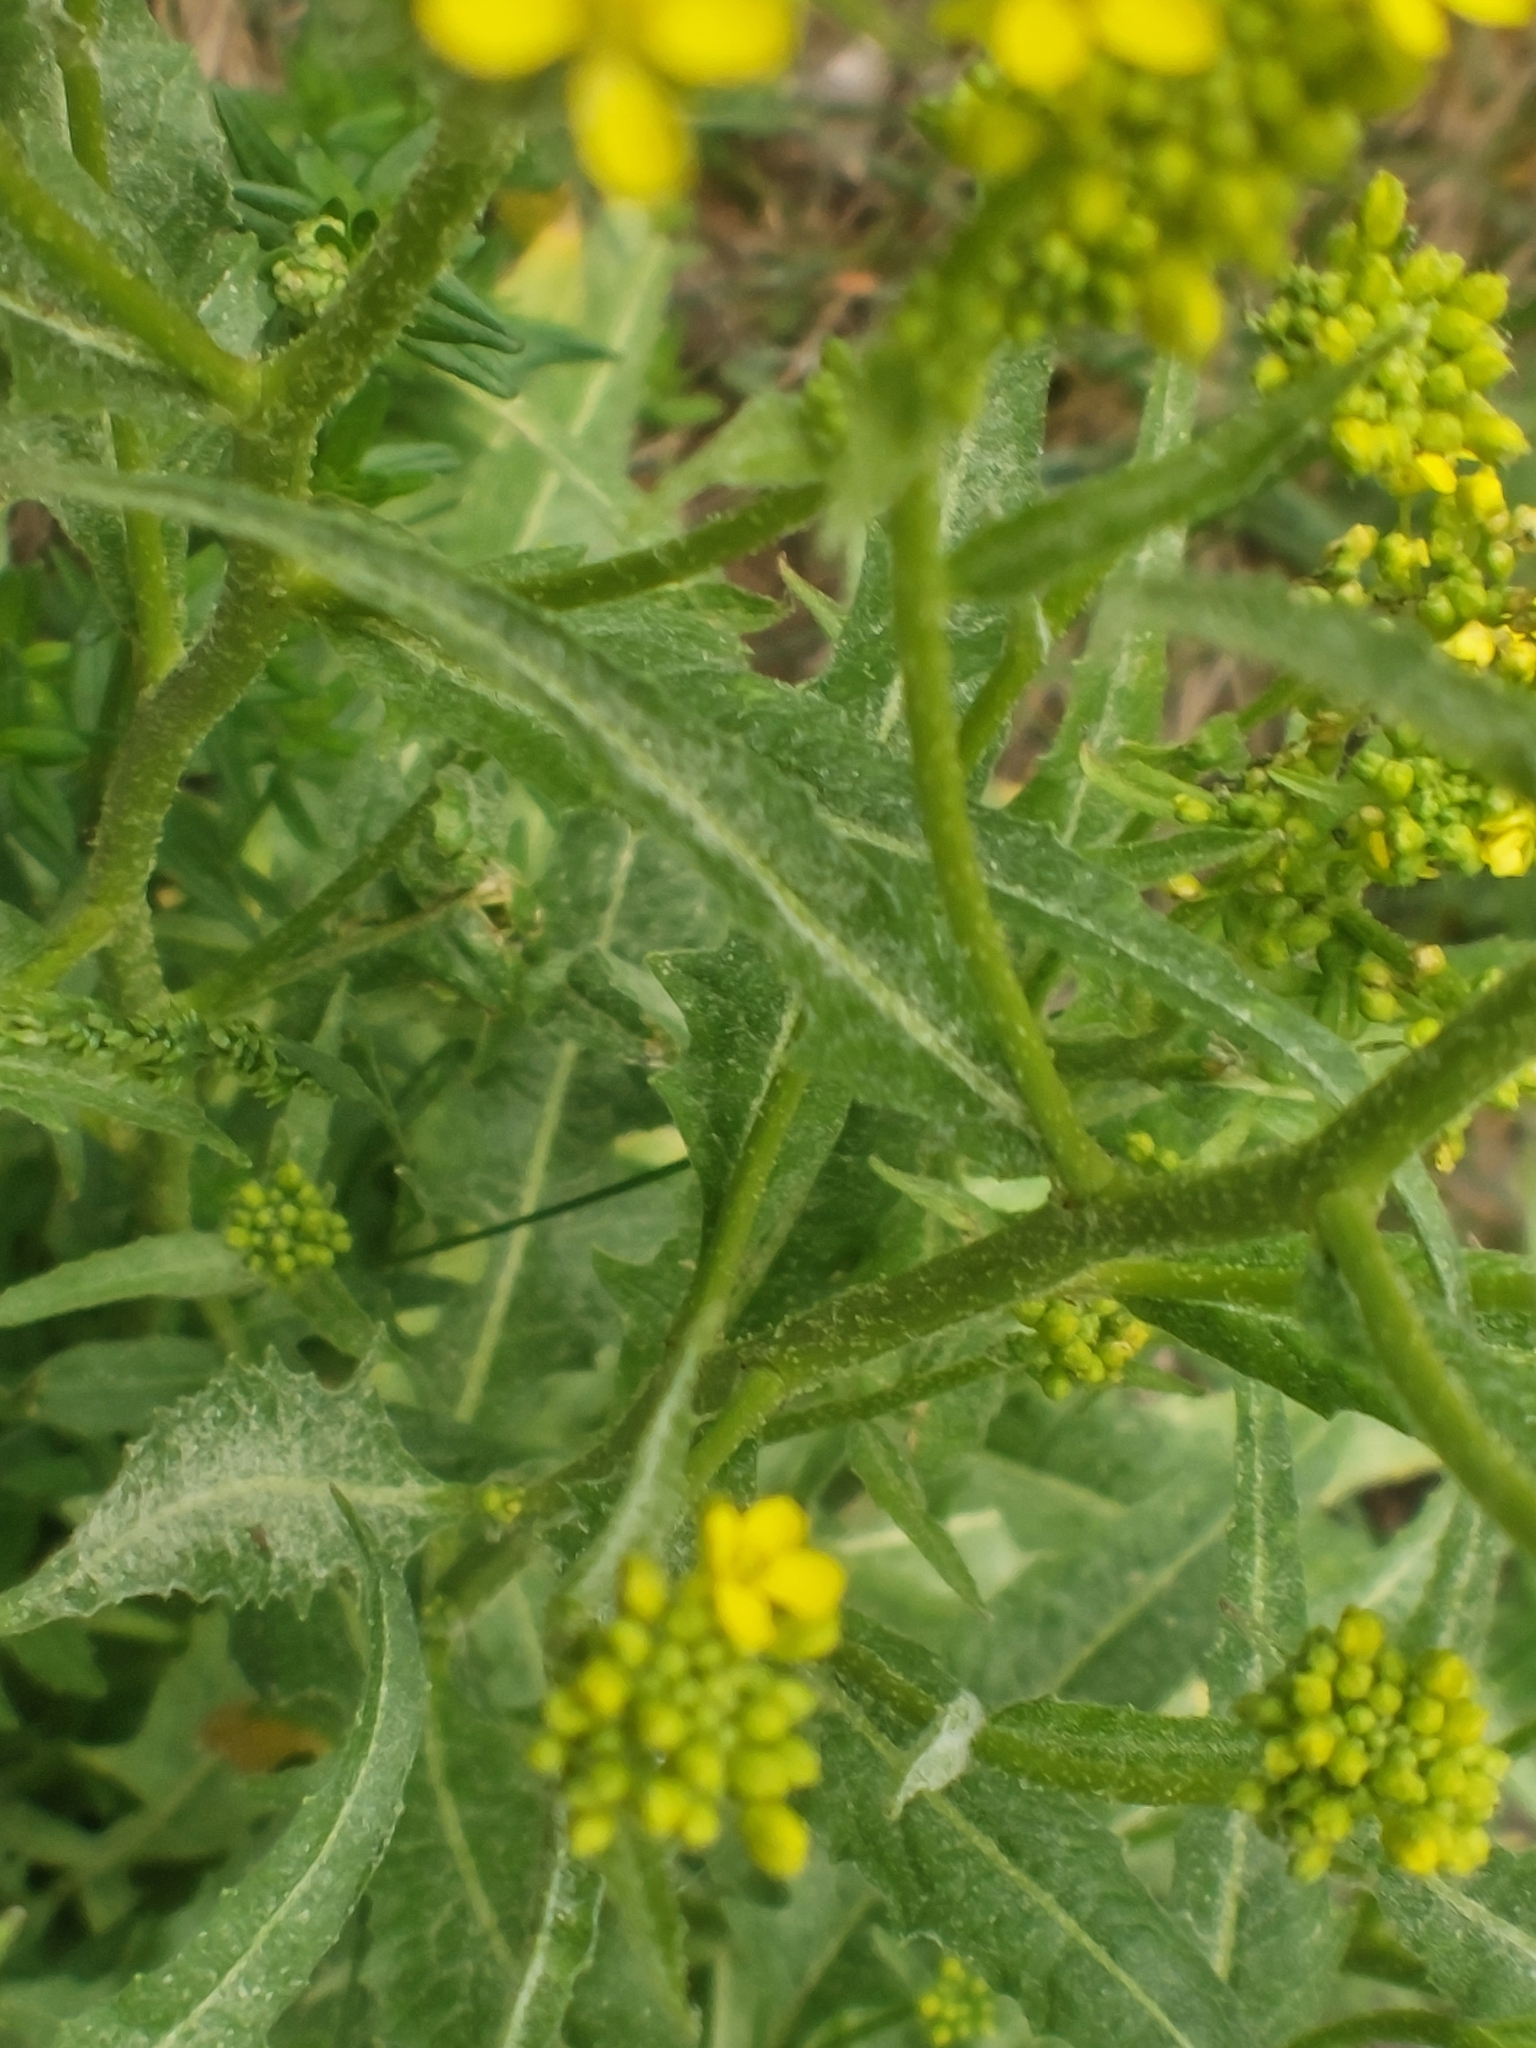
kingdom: Plantae
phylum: Tracheophyta
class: Magnoliopsida
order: Brassicales
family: Brassicaceae
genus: Bunias
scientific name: Bunias orientalis
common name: Warty-cabbage
